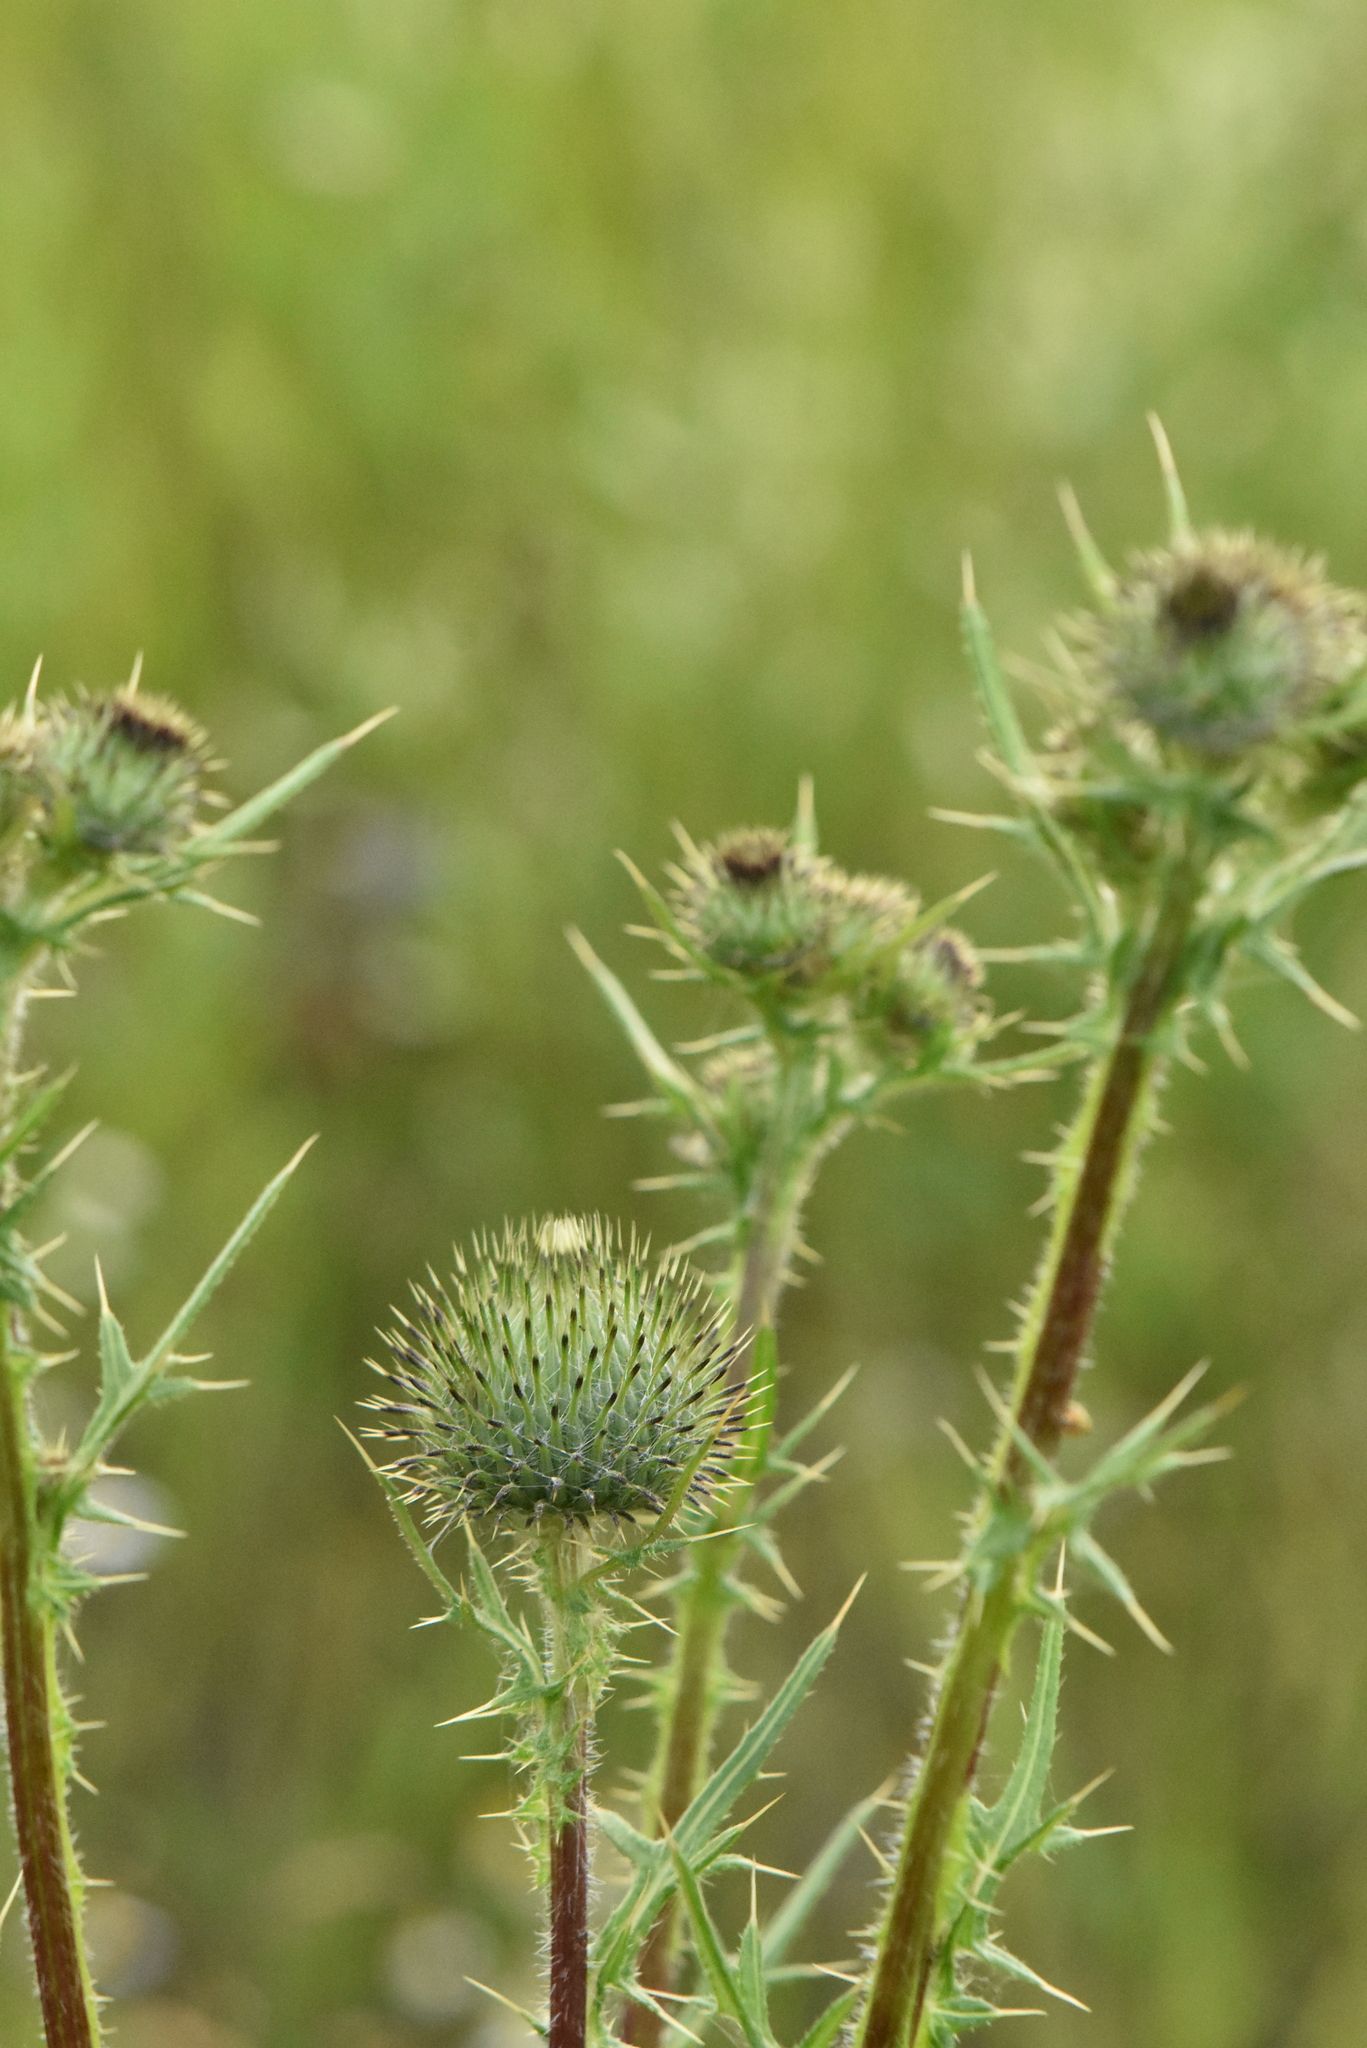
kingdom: Plantae
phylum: Tracheophyta
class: Magnoliopsida
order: Asterales
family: Asteraceae
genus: Cirsium
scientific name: Cirsium vulgare
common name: Bull thistle
